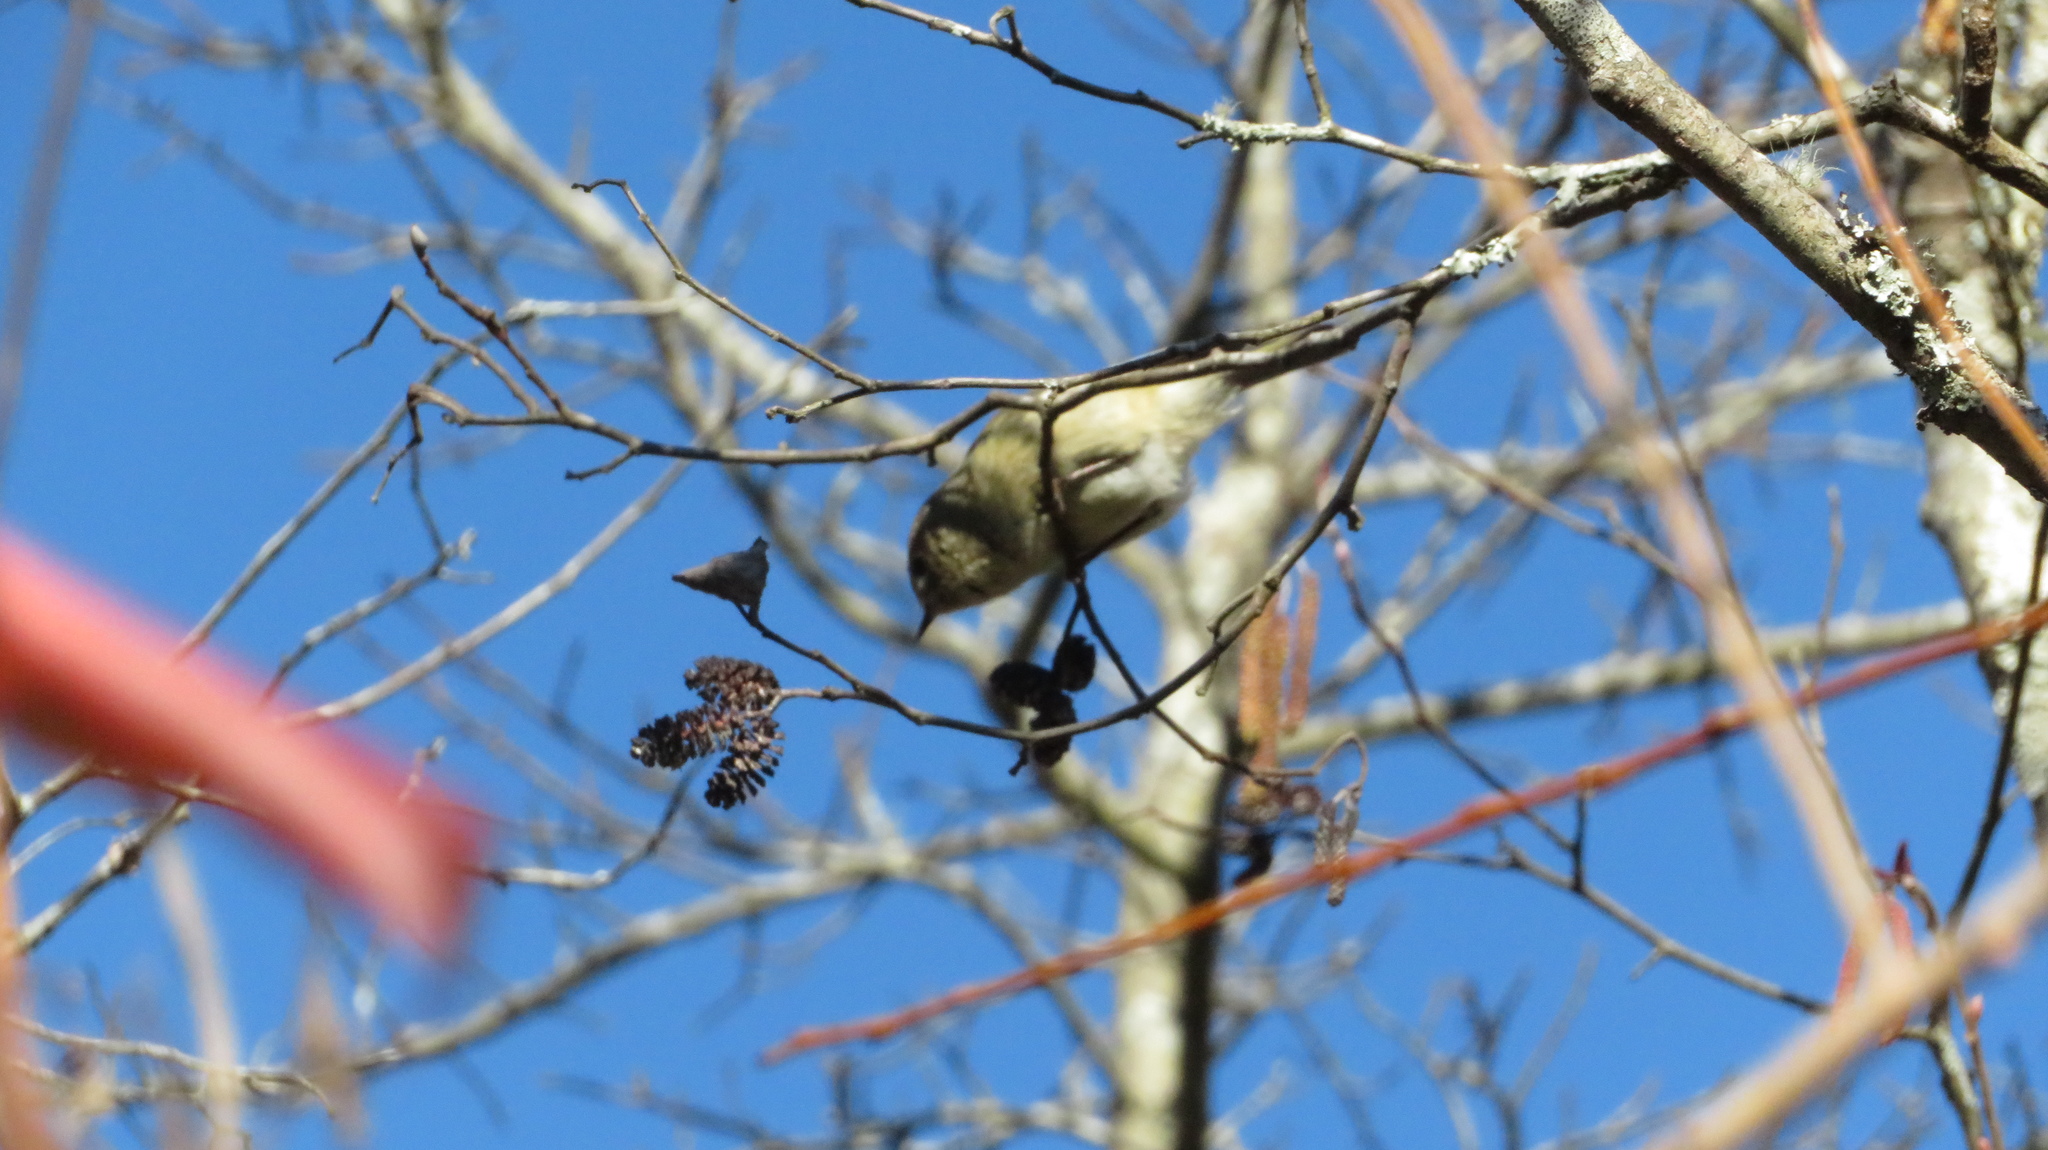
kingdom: Animalia
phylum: Chordata
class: Aves
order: Passeriformes
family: Regulidae
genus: Regulus
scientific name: Regulus calendula
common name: Ruby-crowned kinglet
